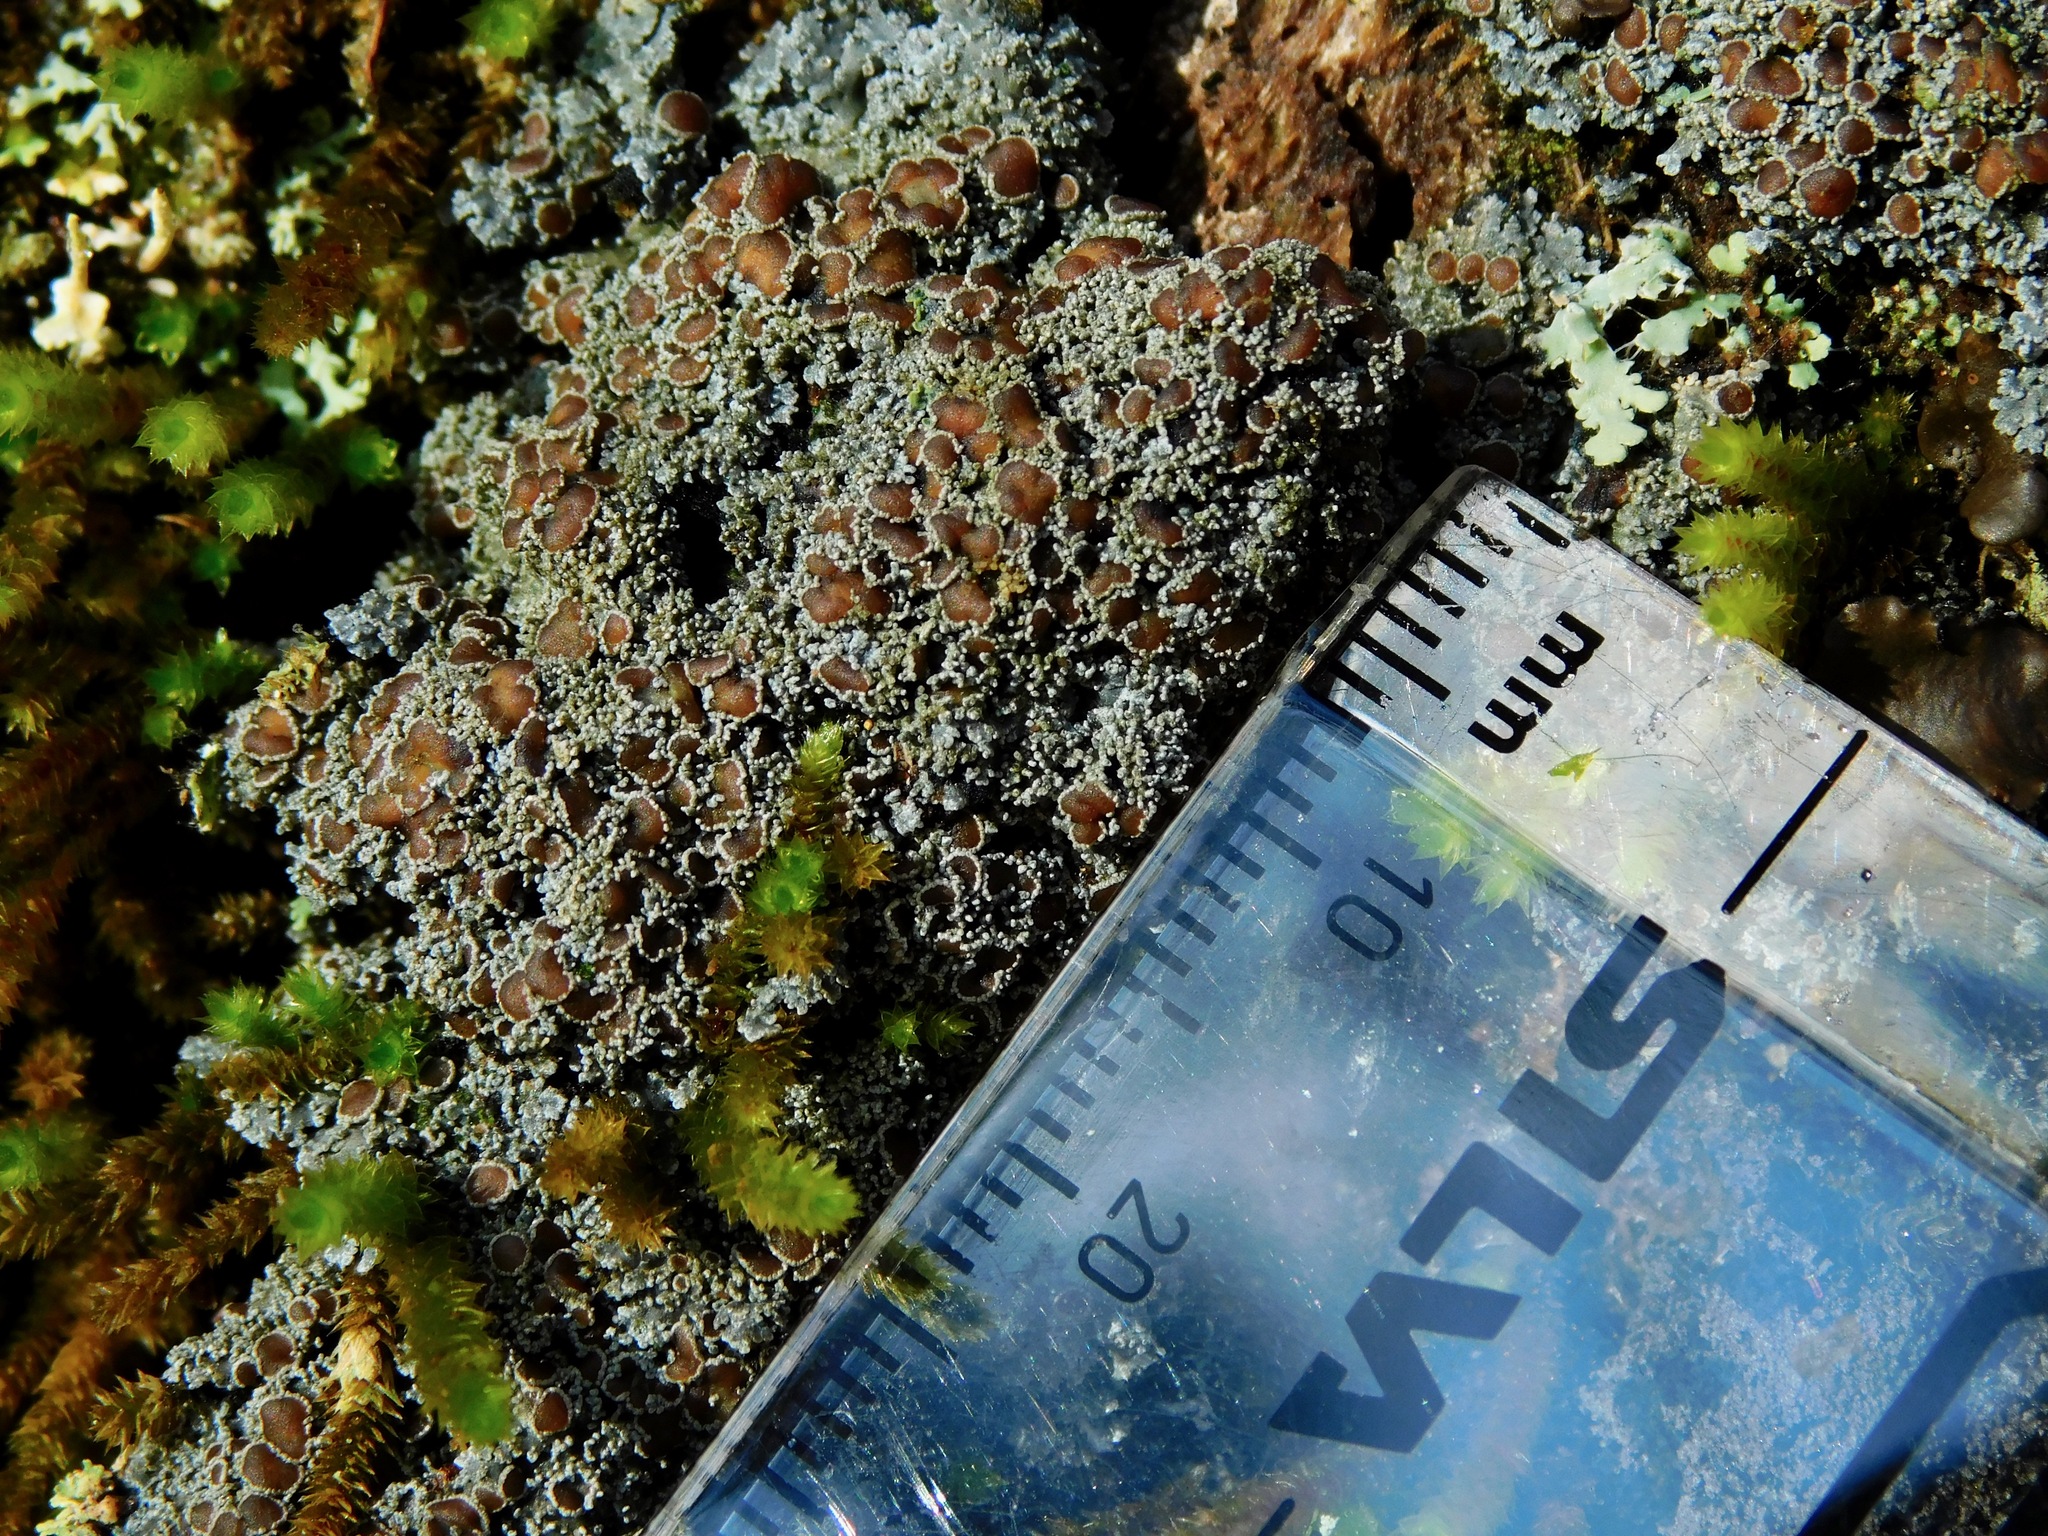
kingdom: Fungi
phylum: Ascomycota
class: Lecanoromycetes
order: Peltigerales
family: Pannariaceae
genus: Protopannaria
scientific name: Protopannaria pezizoides
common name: Brown-gray m oss-shingle
